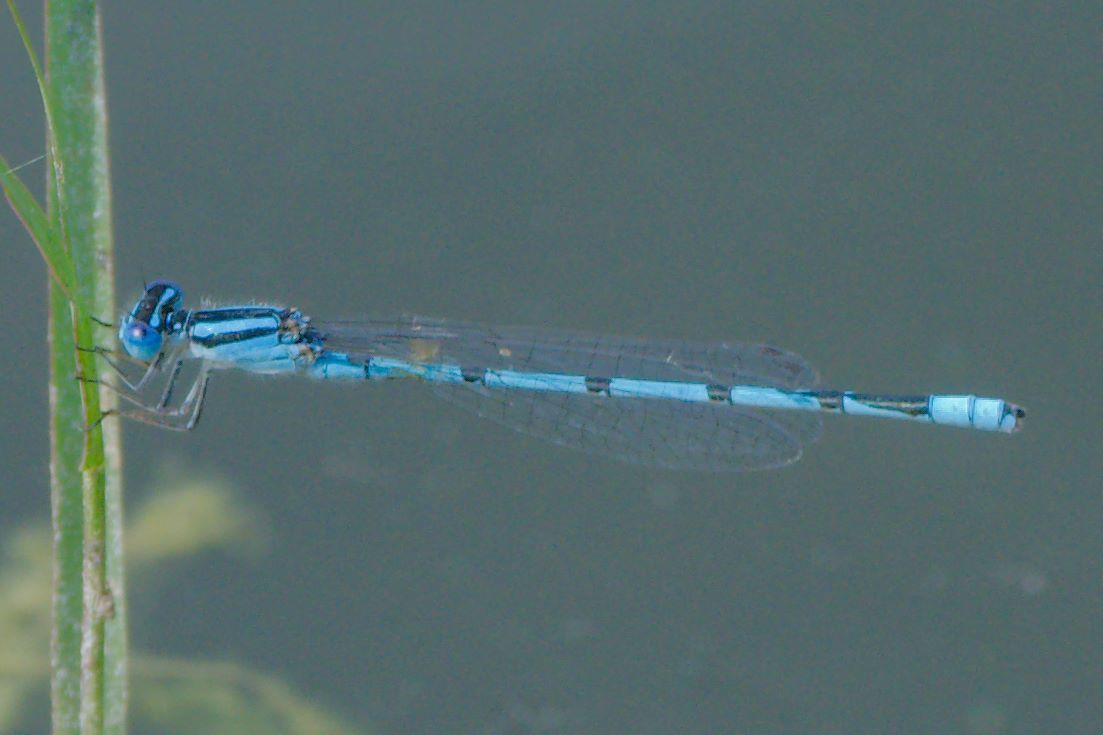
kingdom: Animalia
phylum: Arthropoda
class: Insecta
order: Odonata
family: Coenagrionidae
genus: Enallagma
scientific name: Enallagma civile
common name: Damselfly
